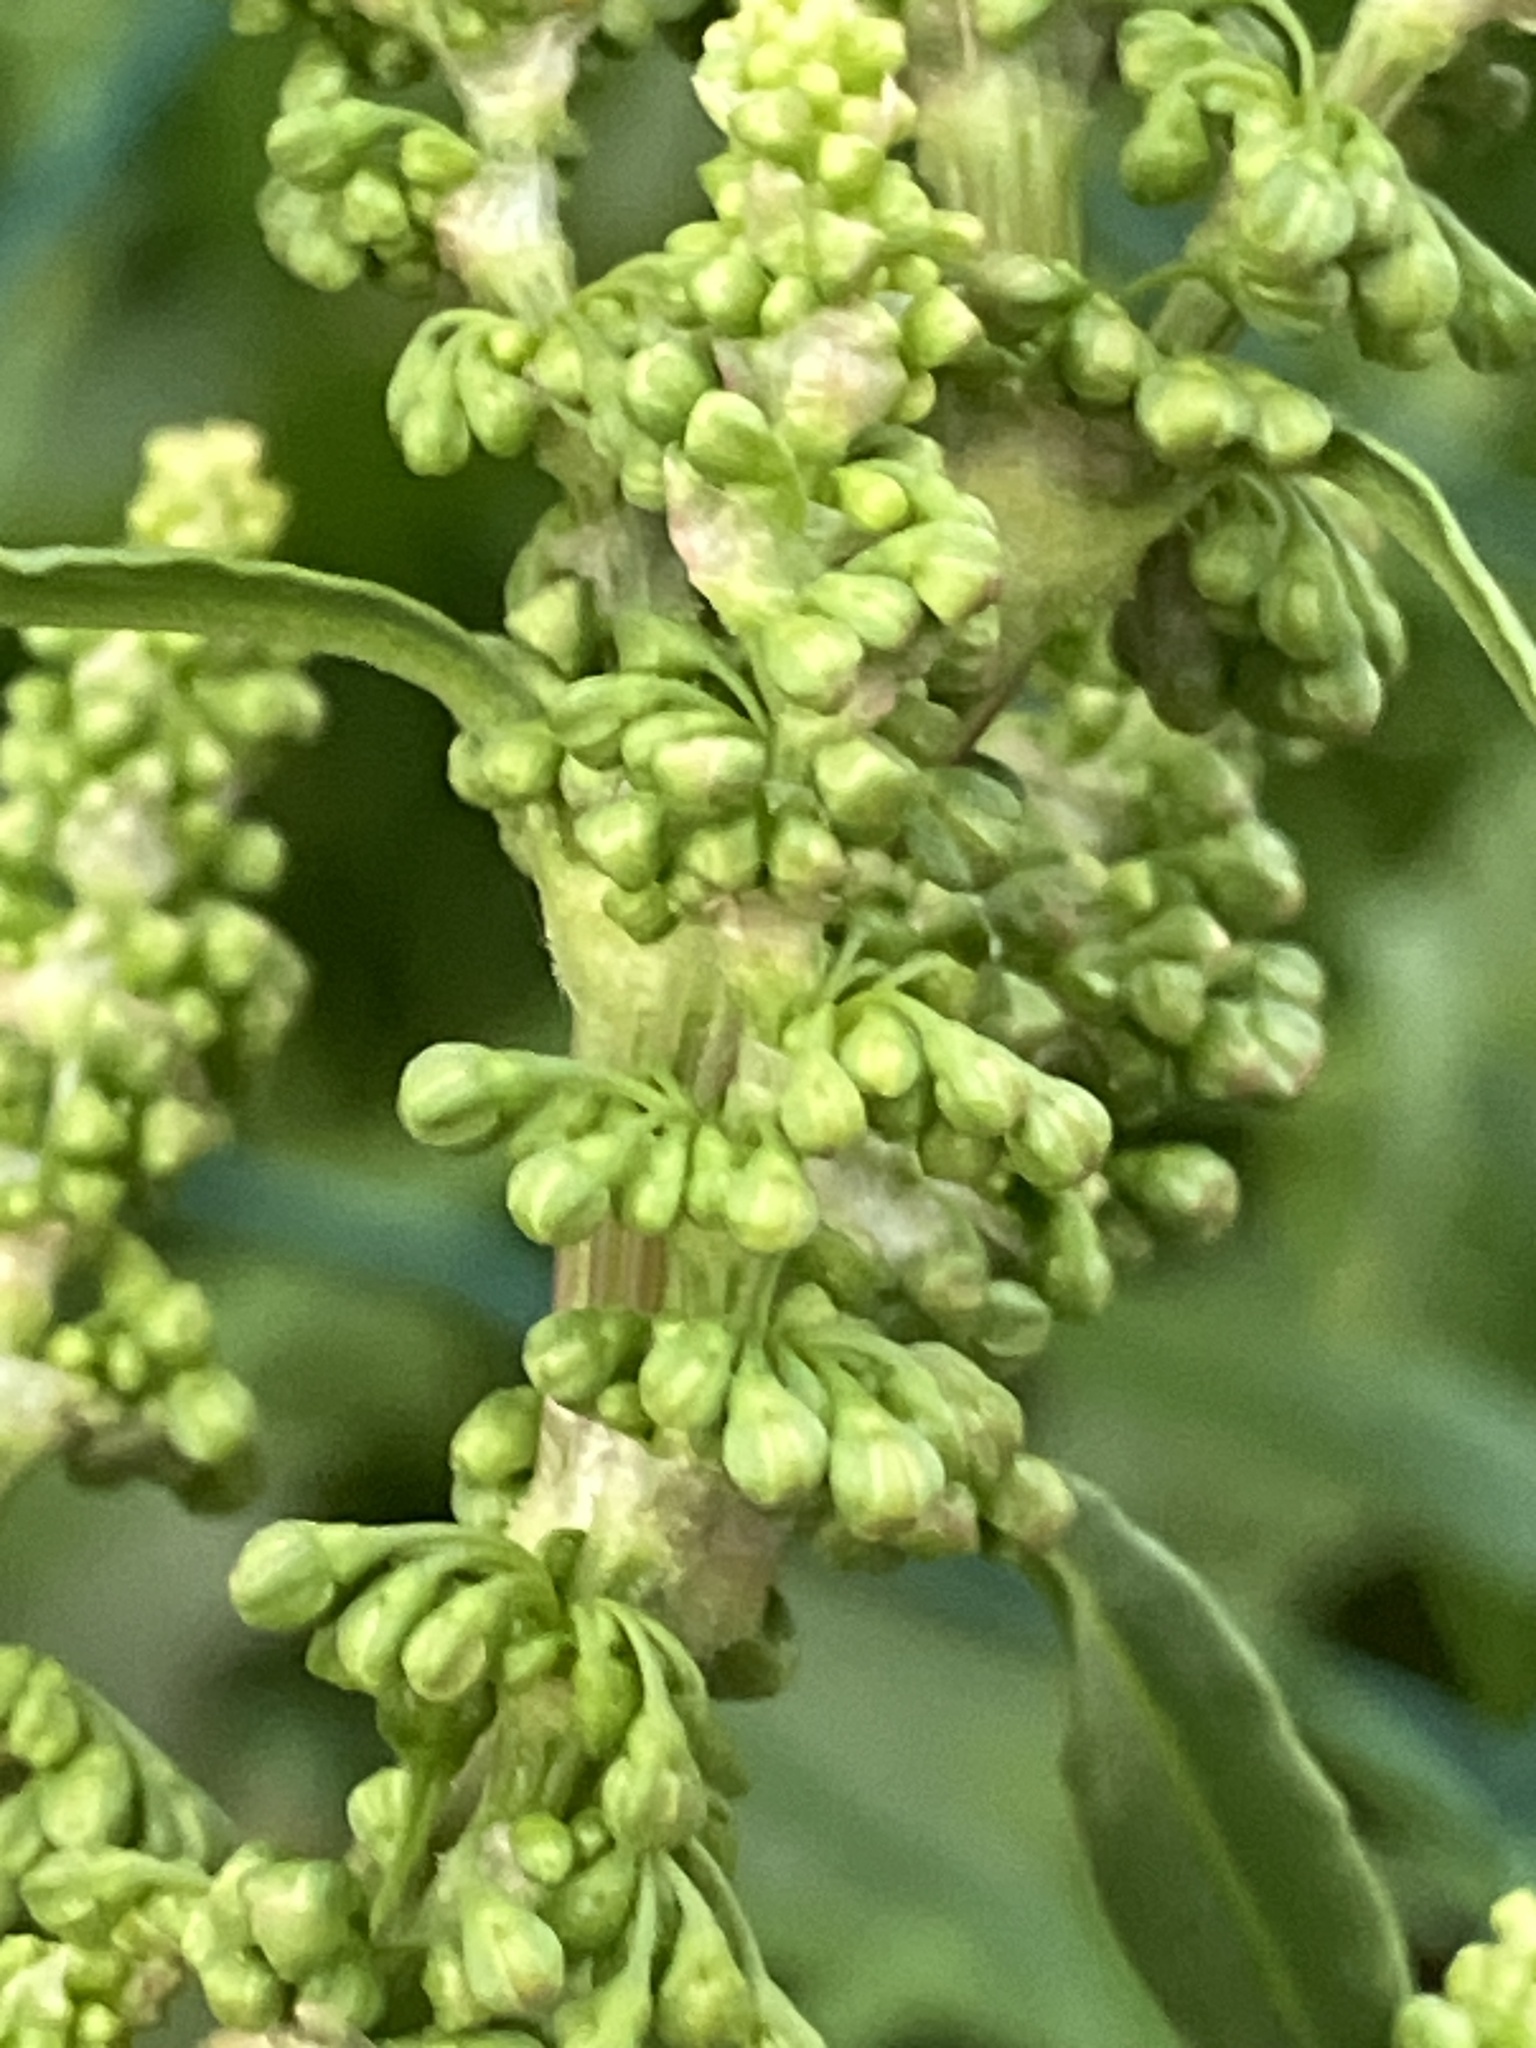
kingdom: Plantae
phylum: Tracheophyta
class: Magnoliopsida
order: Caryophyllales
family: Polygonaceae
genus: Rumex
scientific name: Rumex crispus
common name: Curled dock
